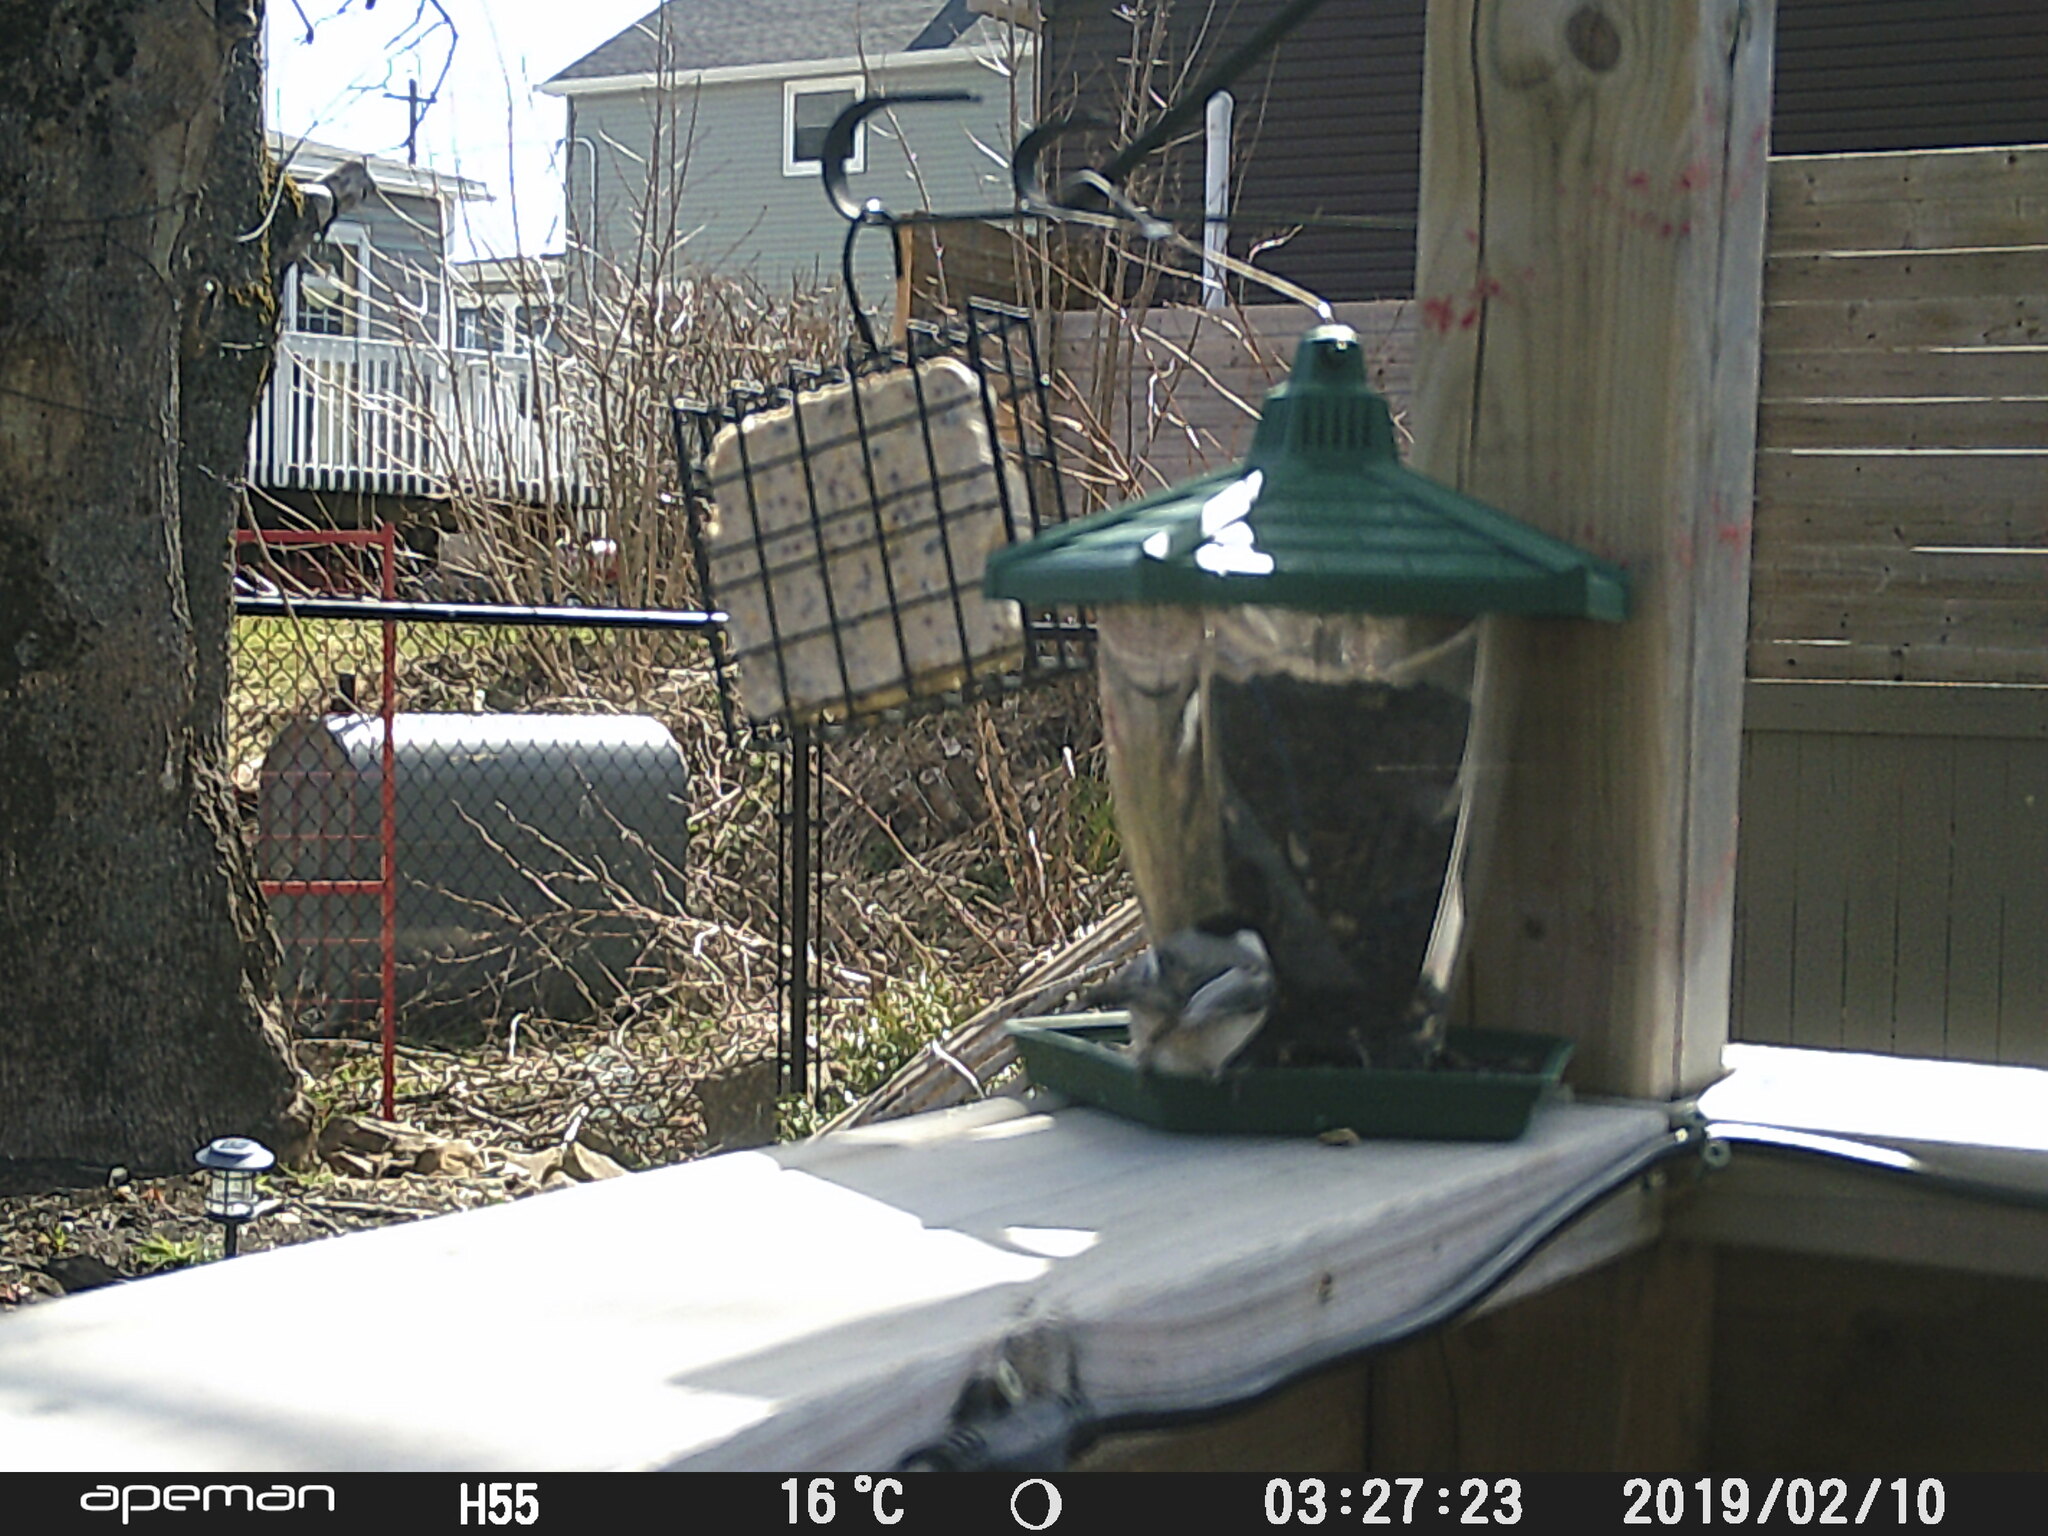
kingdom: Animalia
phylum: Chordata
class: Aves
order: Passeriformes
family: Paridae
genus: Poecile
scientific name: Poecile atricapillus
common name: Black-capped chickadee
